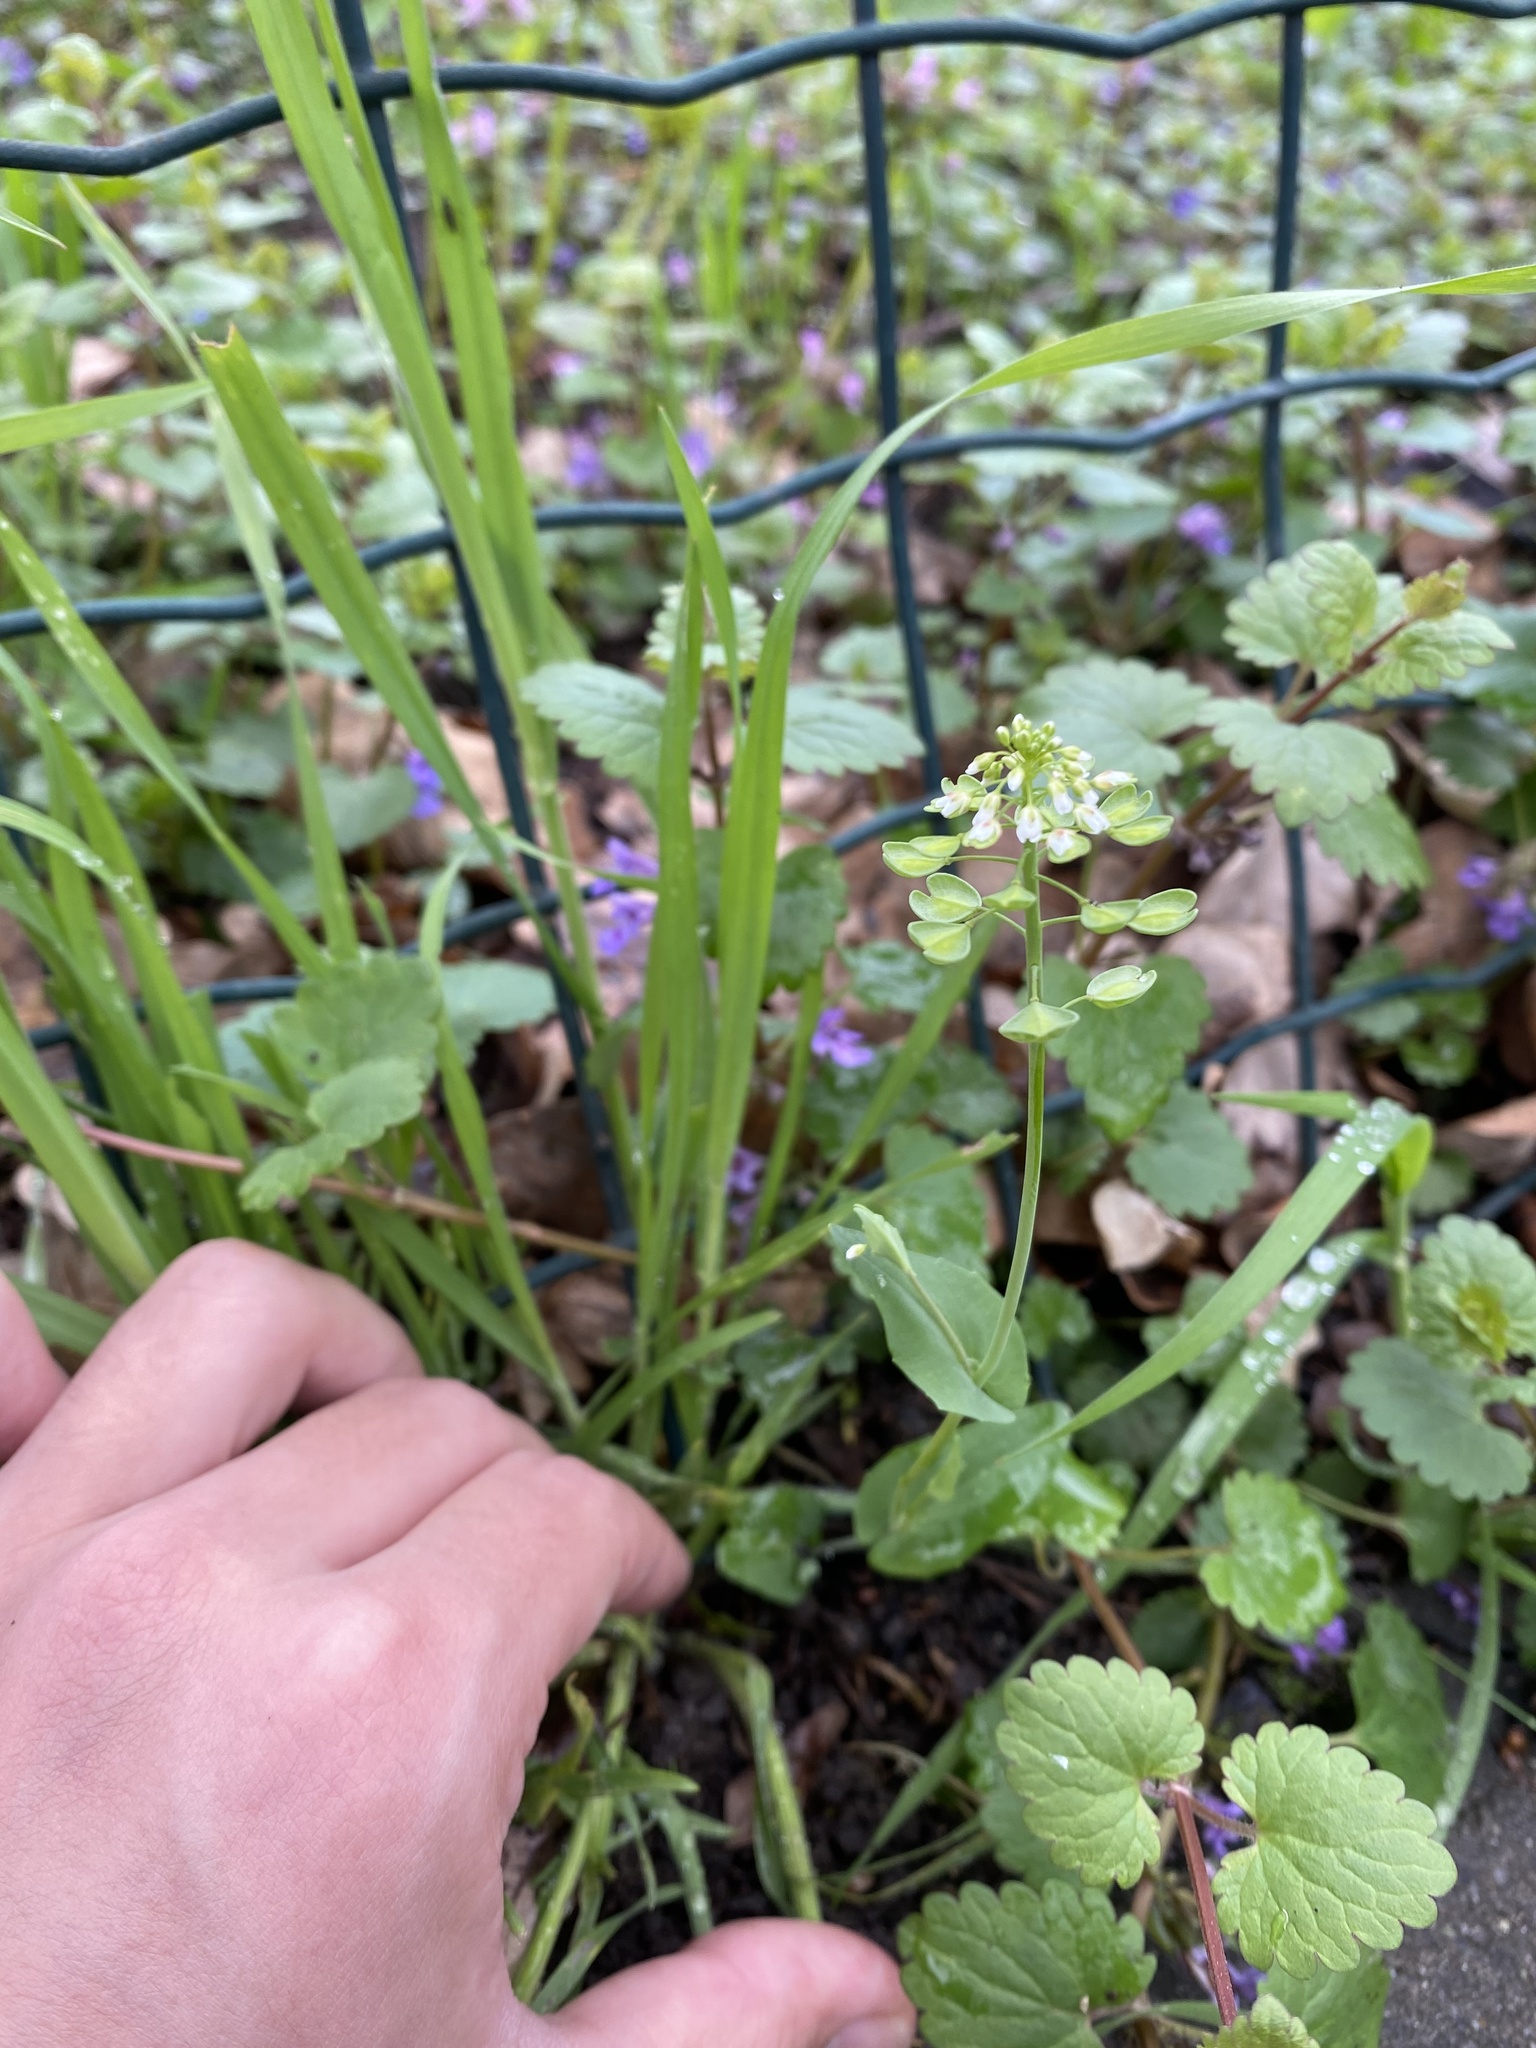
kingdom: Plantae
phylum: Tracheophyta
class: Magnoliopsida
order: Brassicales
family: Brassicaceae
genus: Noccaea
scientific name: Noccaea perfoliata
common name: Perfoliate pennycress
